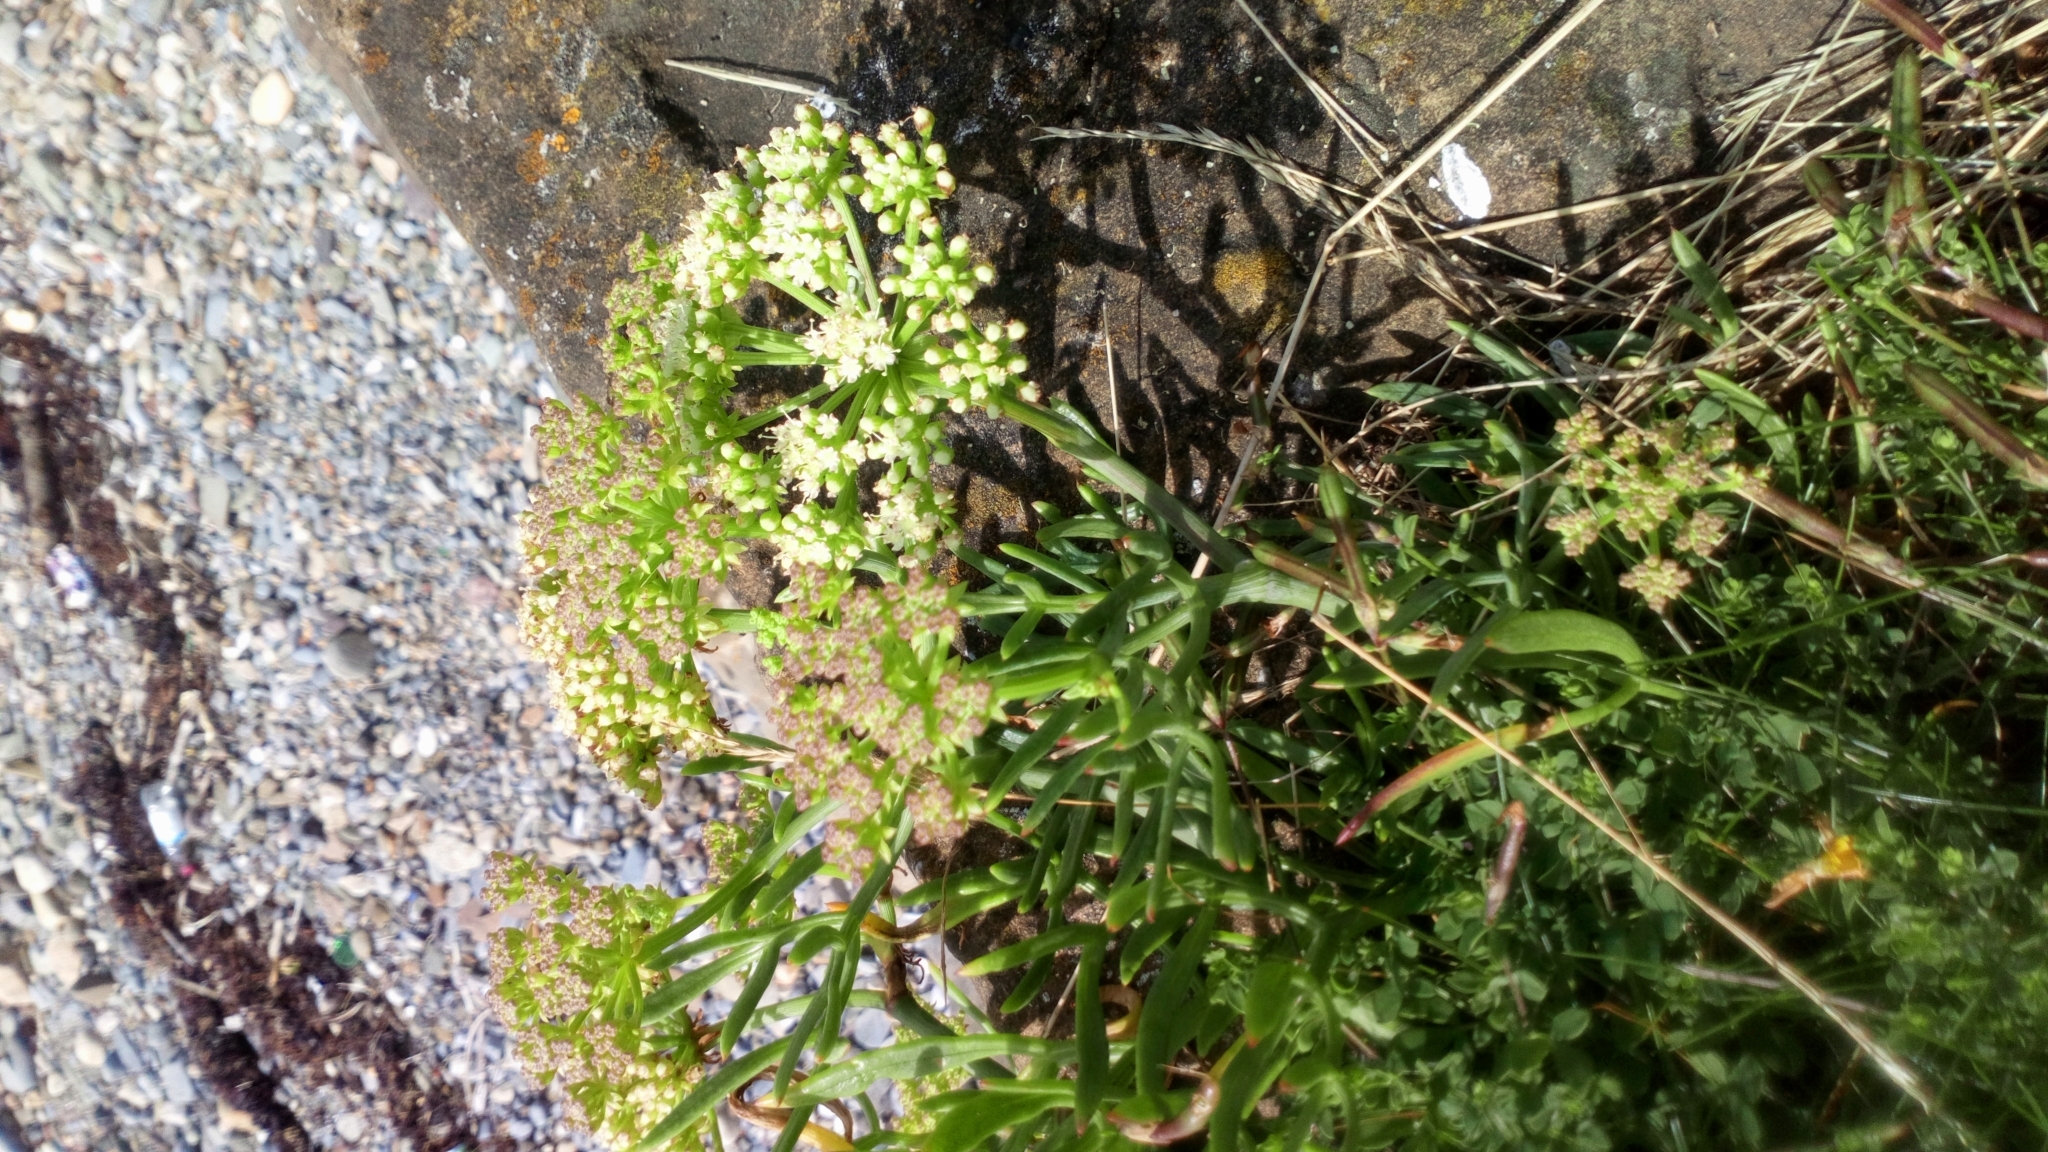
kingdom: Plantae
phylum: Tracheophyta
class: Magnoliopsida
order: Apiales
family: Apiaceae
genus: Crithmum
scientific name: Crithmum maritimum
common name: Rock samphire
